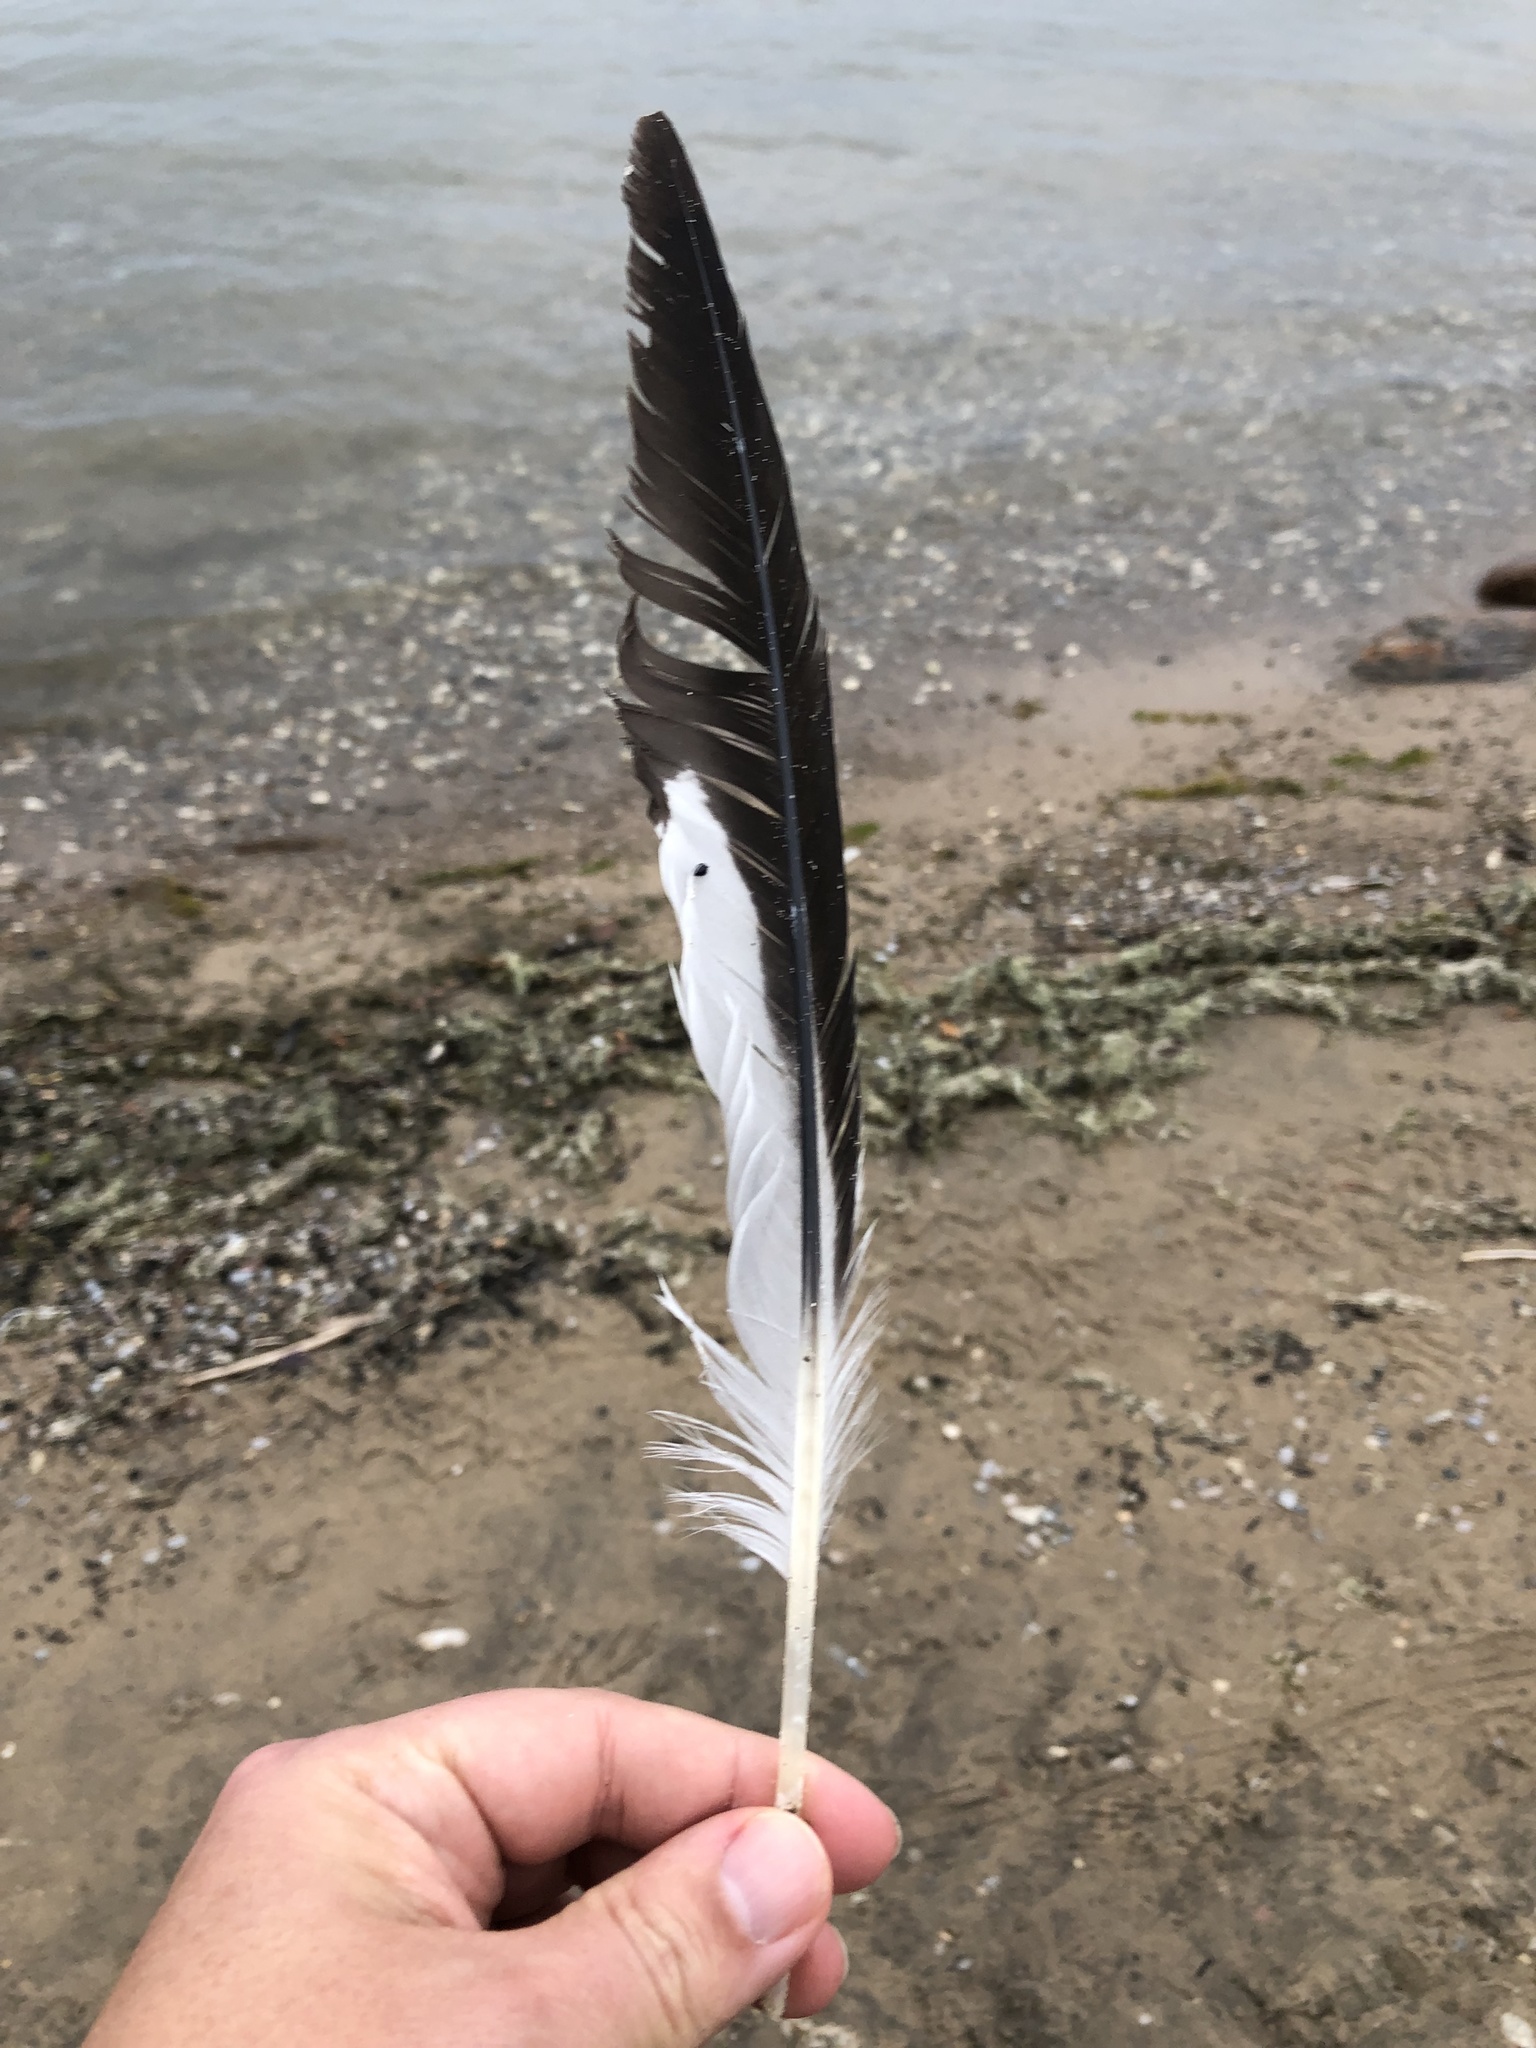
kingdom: Animalia
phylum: Chordata
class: Aves
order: Charadriiformes
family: Laridae
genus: Larus
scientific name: Larus delawarensis
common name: Ring-billed gull
